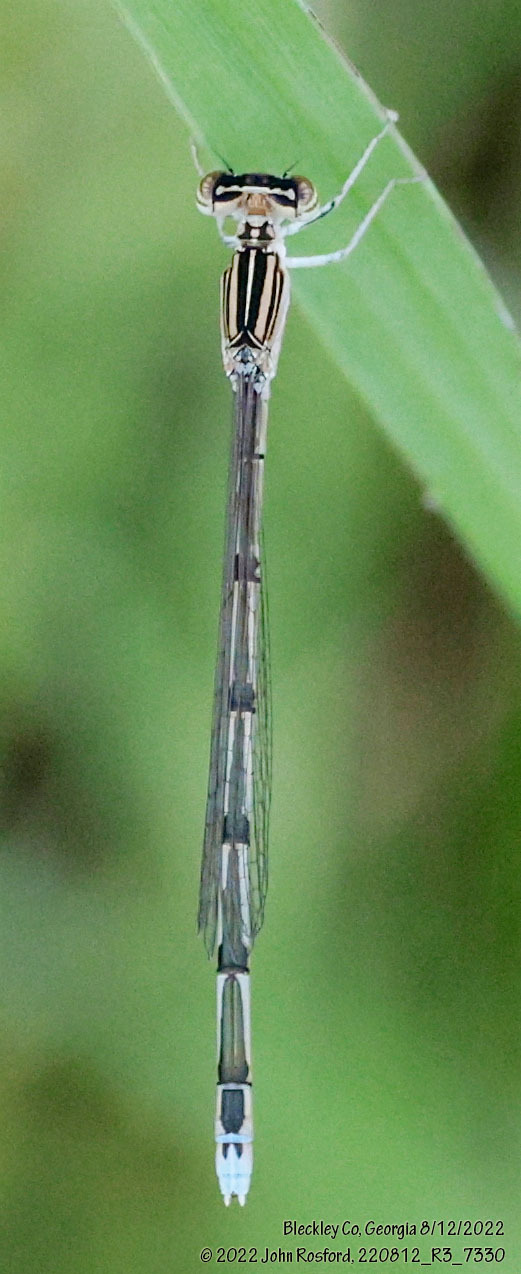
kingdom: Animalia
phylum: Arthropoda
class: Insecta
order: Odonata
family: Coenagrionidae
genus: Enallagma
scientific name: Enallagma basidens
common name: Double-striped bluet
